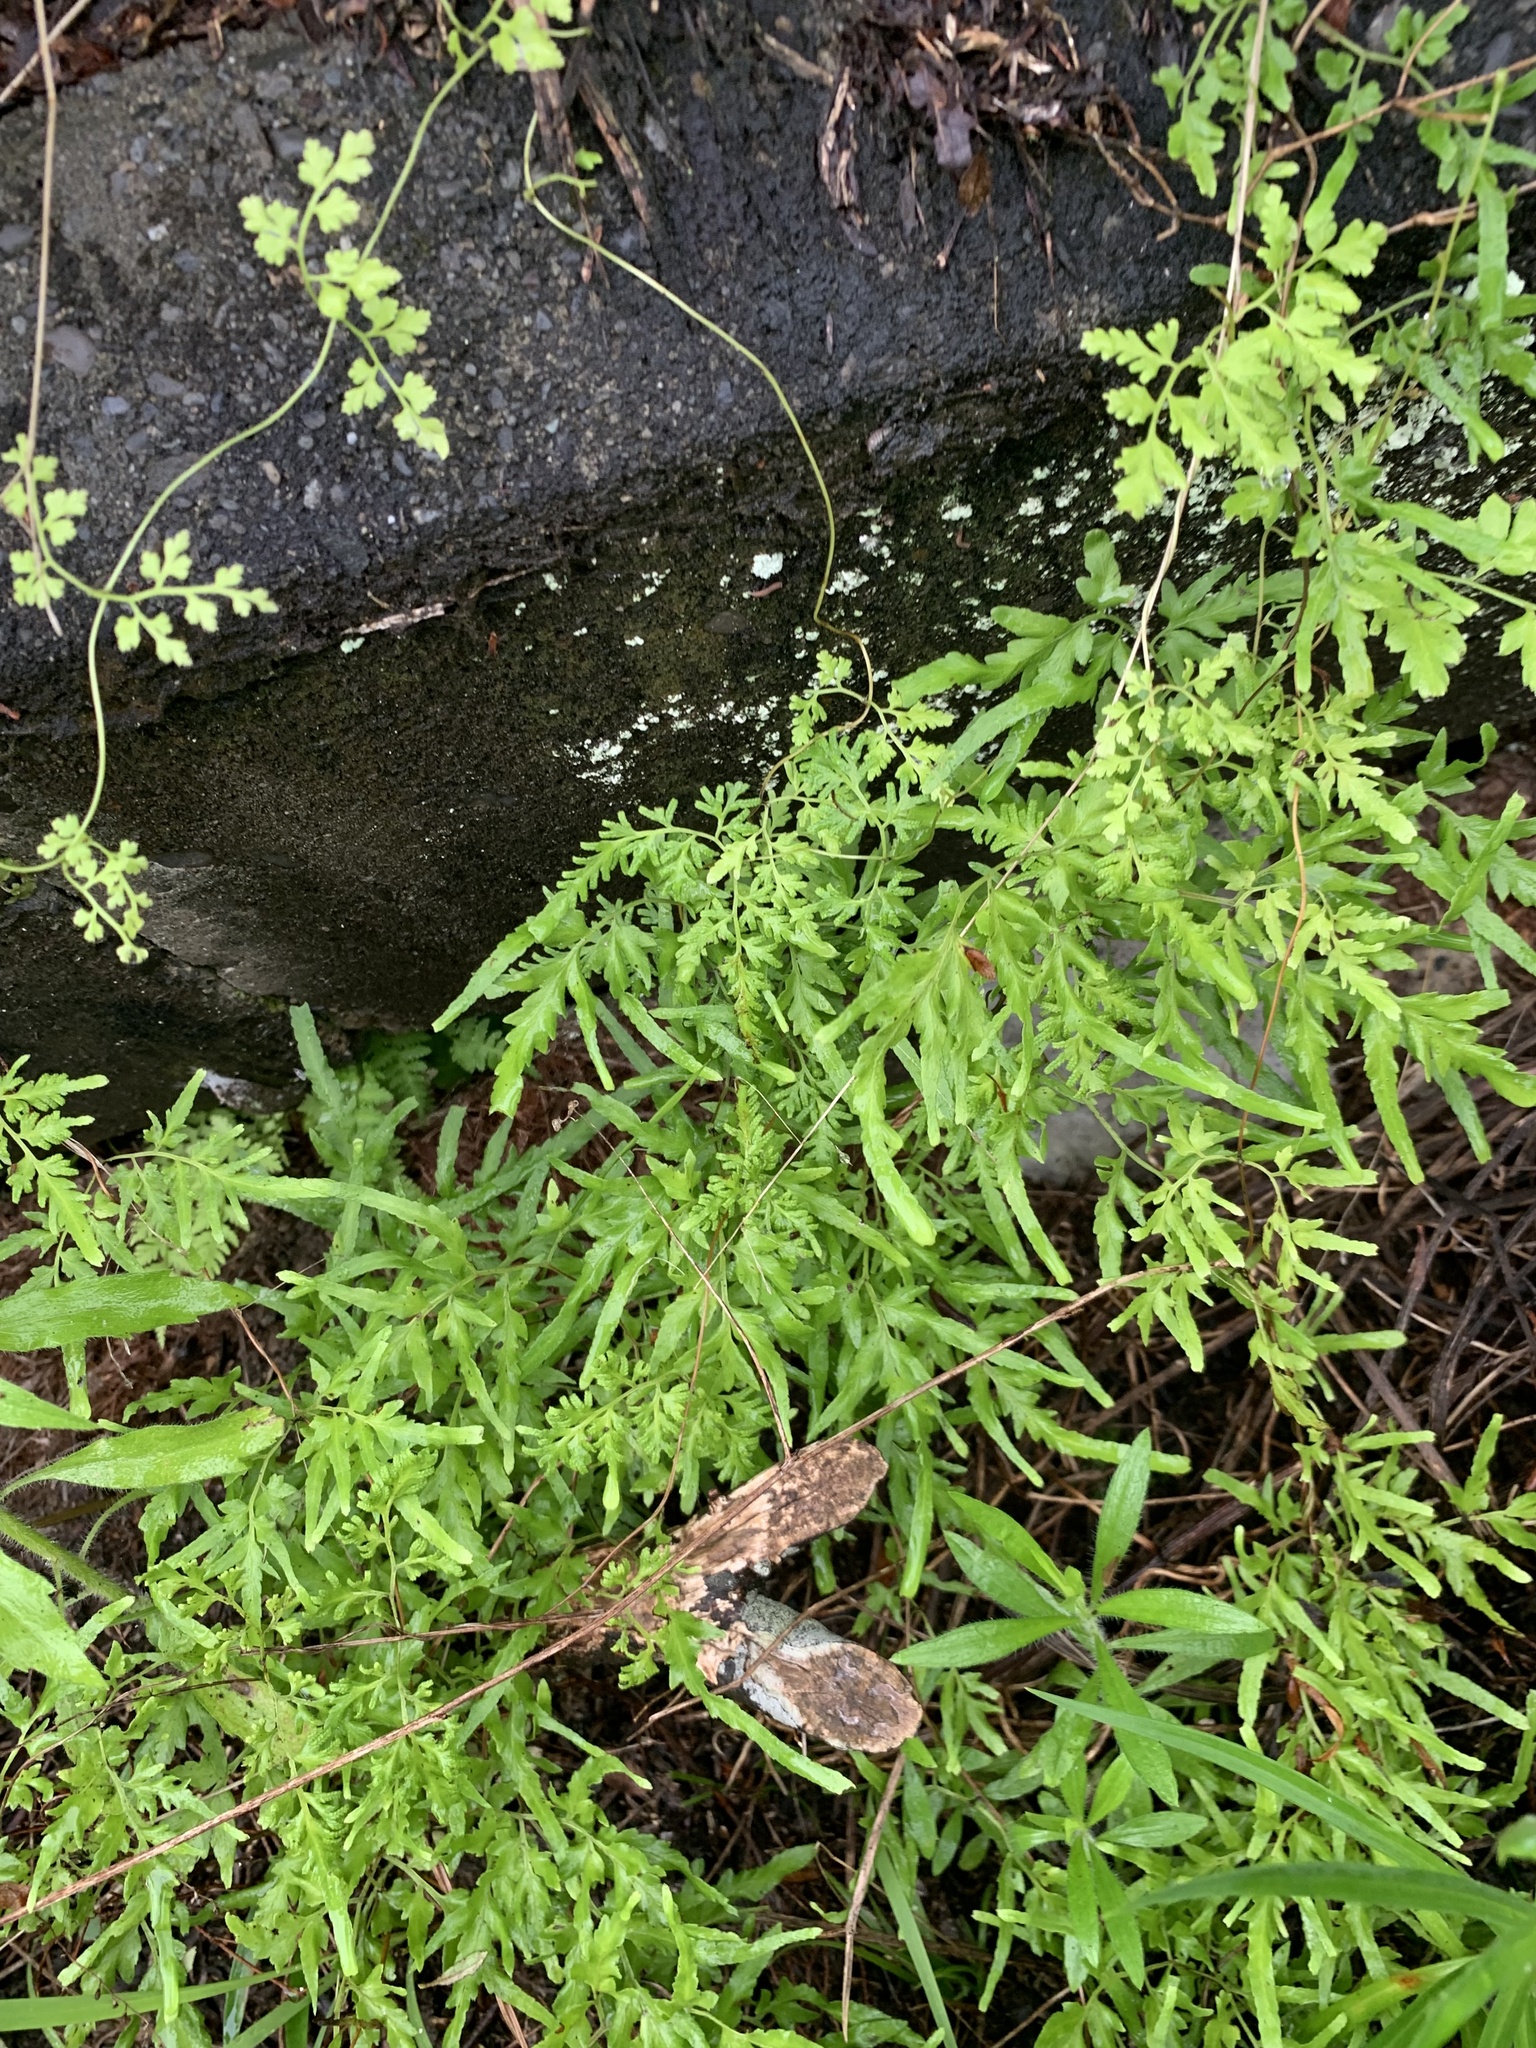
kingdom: Plantae
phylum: Tracheophyta
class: Polypodiopsida
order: Schizaeales
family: Lygodiaceae
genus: Lygodium
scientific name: Lygodium japonicum
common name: Japanese climbing fern
